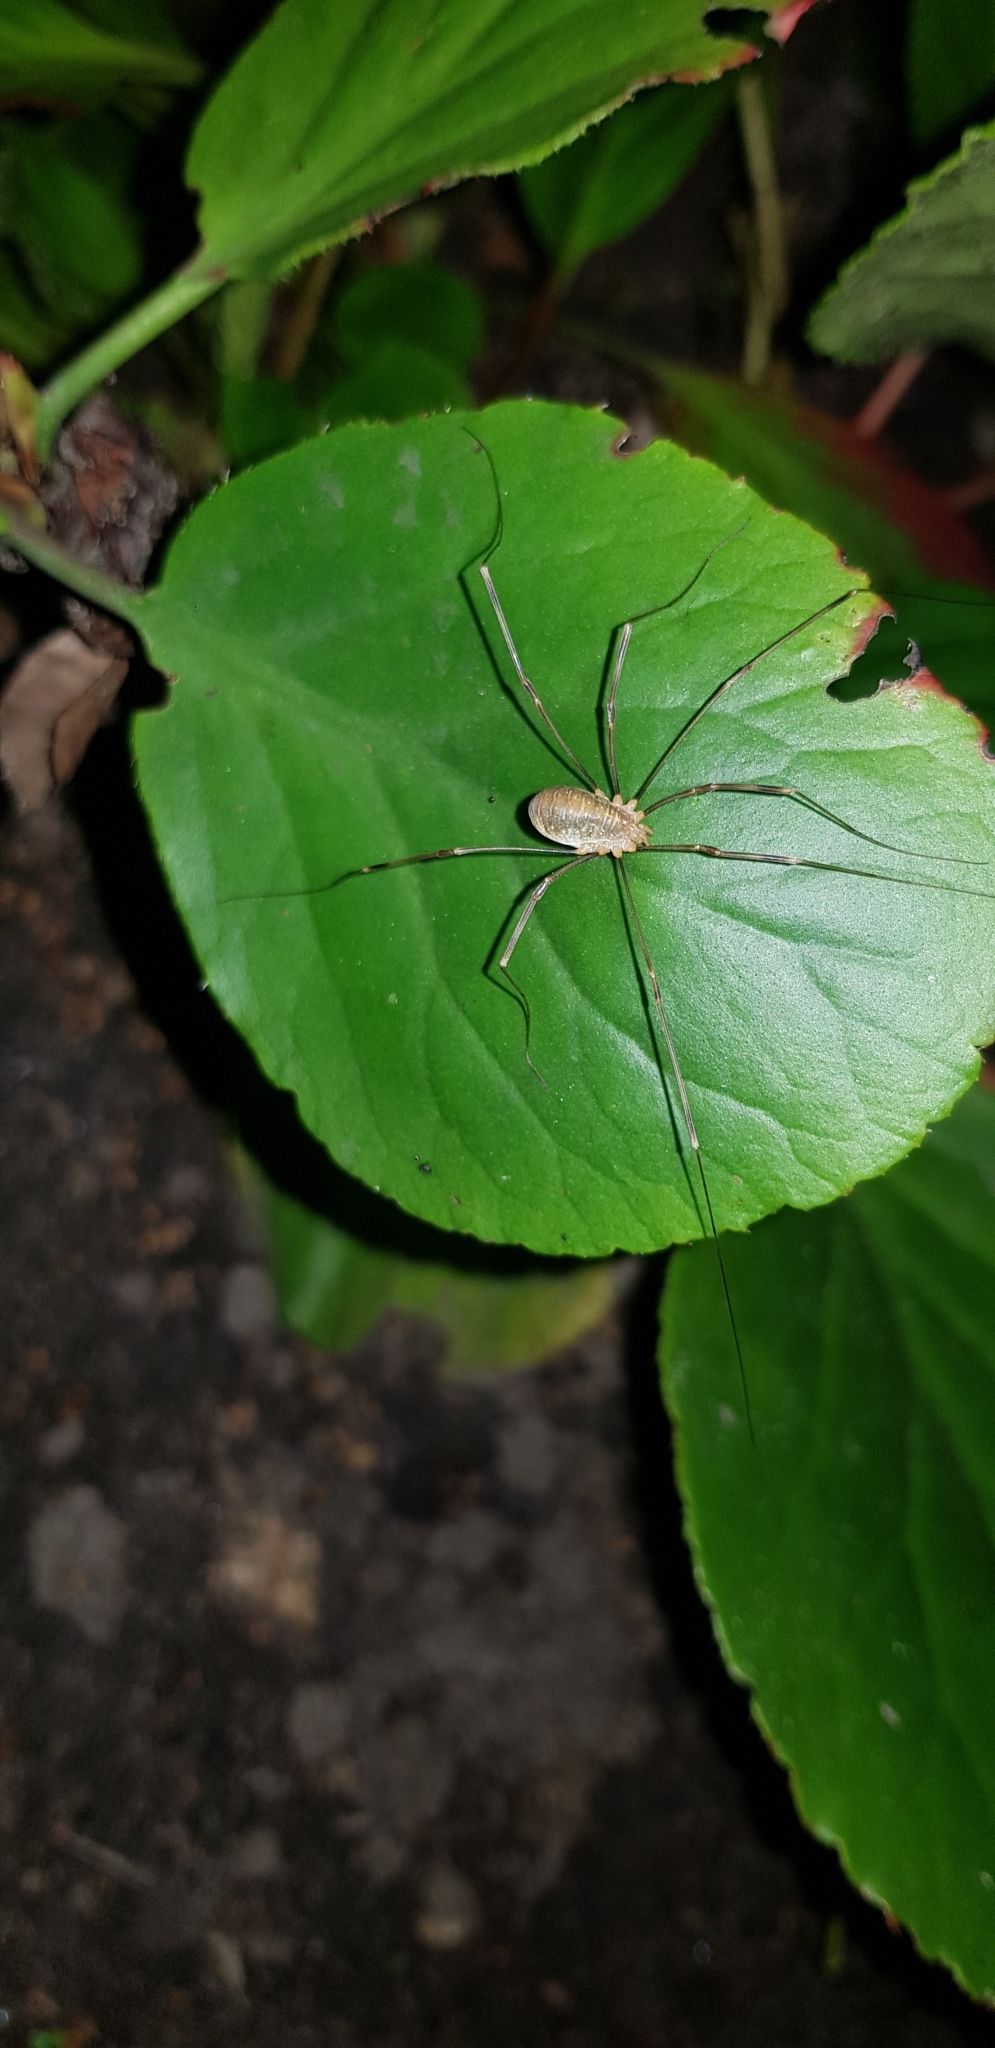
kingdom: Animalia
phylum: Arthropoda
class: Arachnida
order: Opiliones
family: Phalangiidae
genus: Opilio
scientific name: Opilio canestrinii
